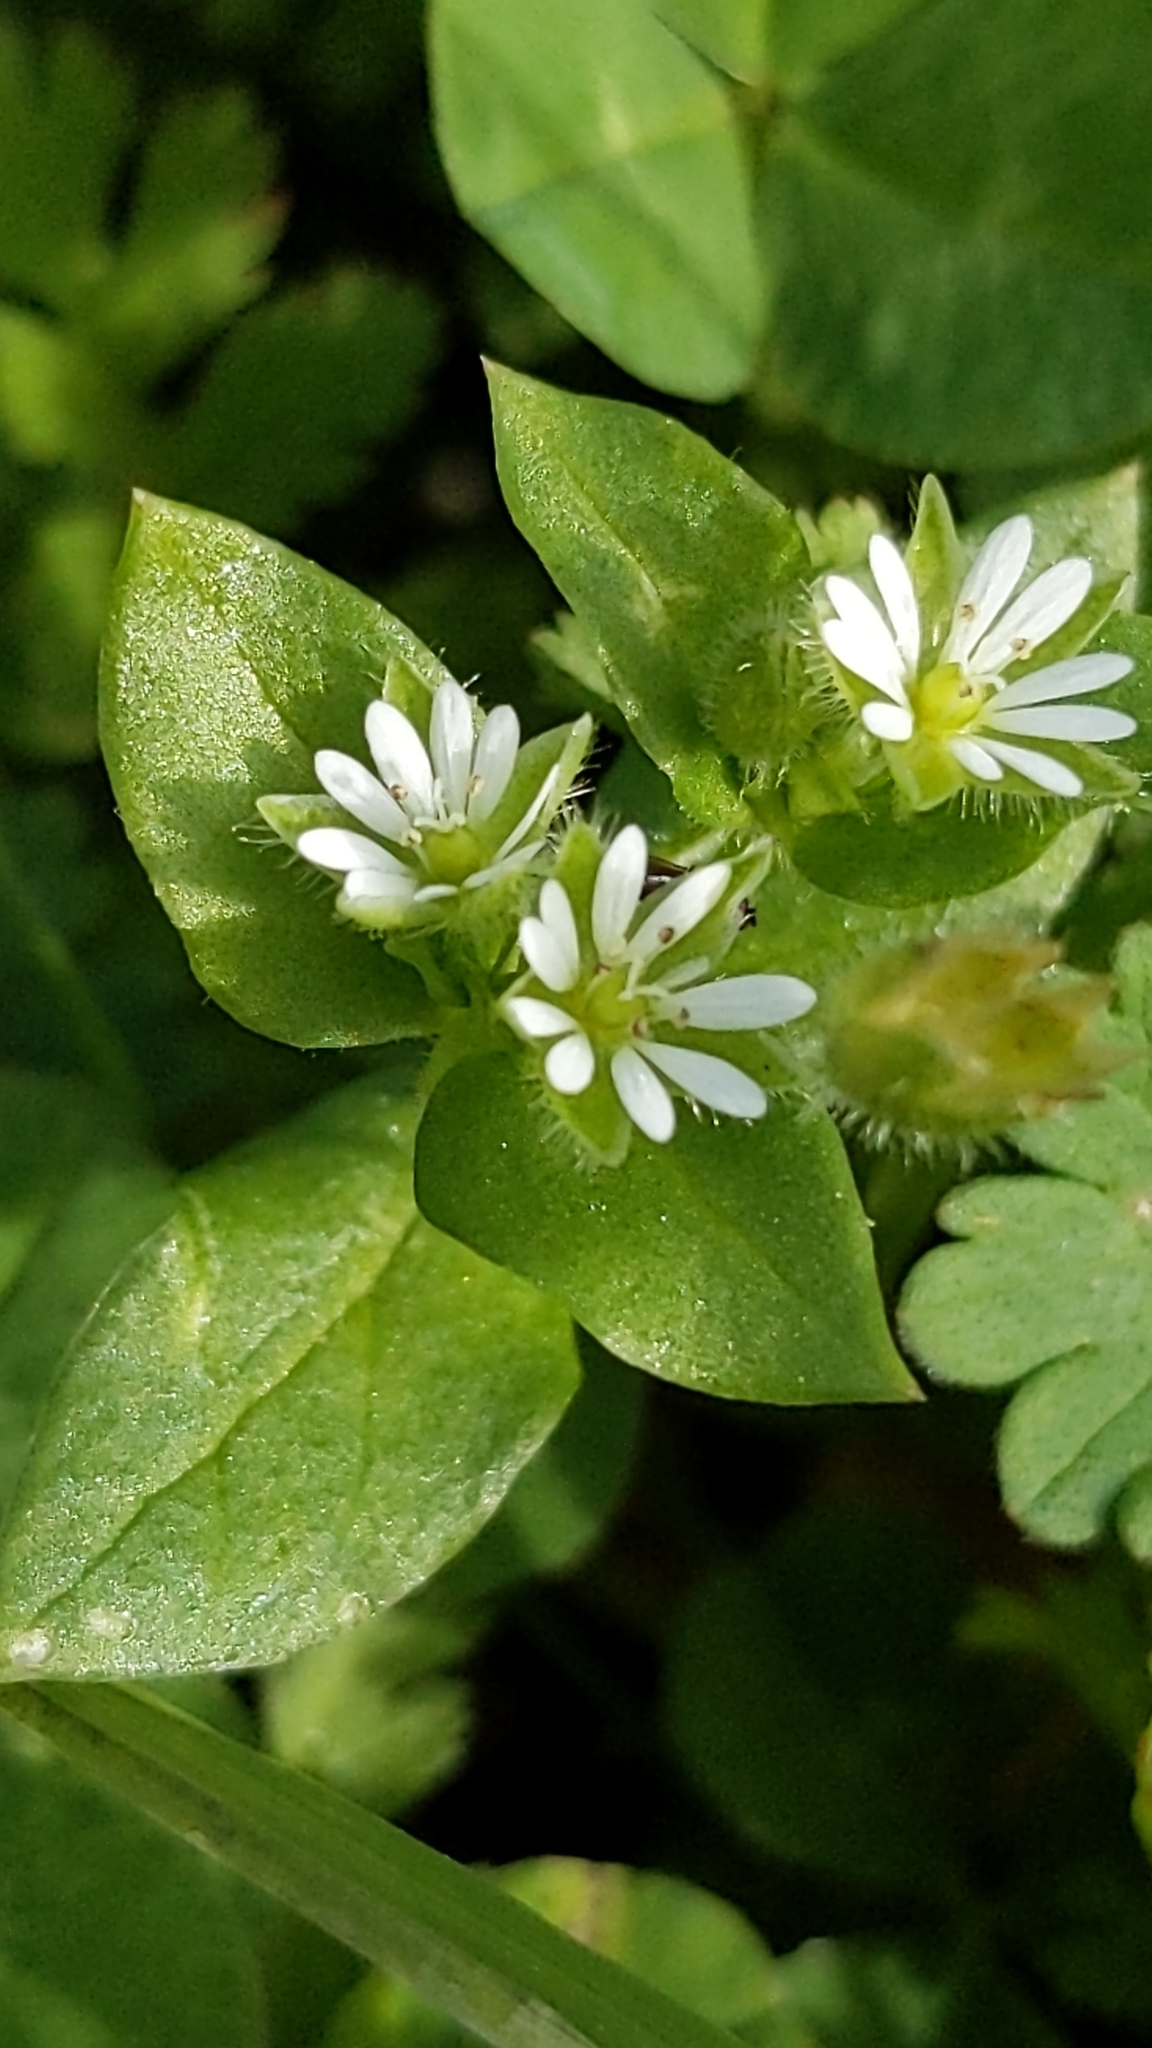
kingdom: Plantae
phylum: Tracheophyta
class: Magnoliopsida
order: Caryophyllales
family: Caryophyllaceae
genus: Stellaria
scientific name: Stellaria media
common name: Common chickweed
